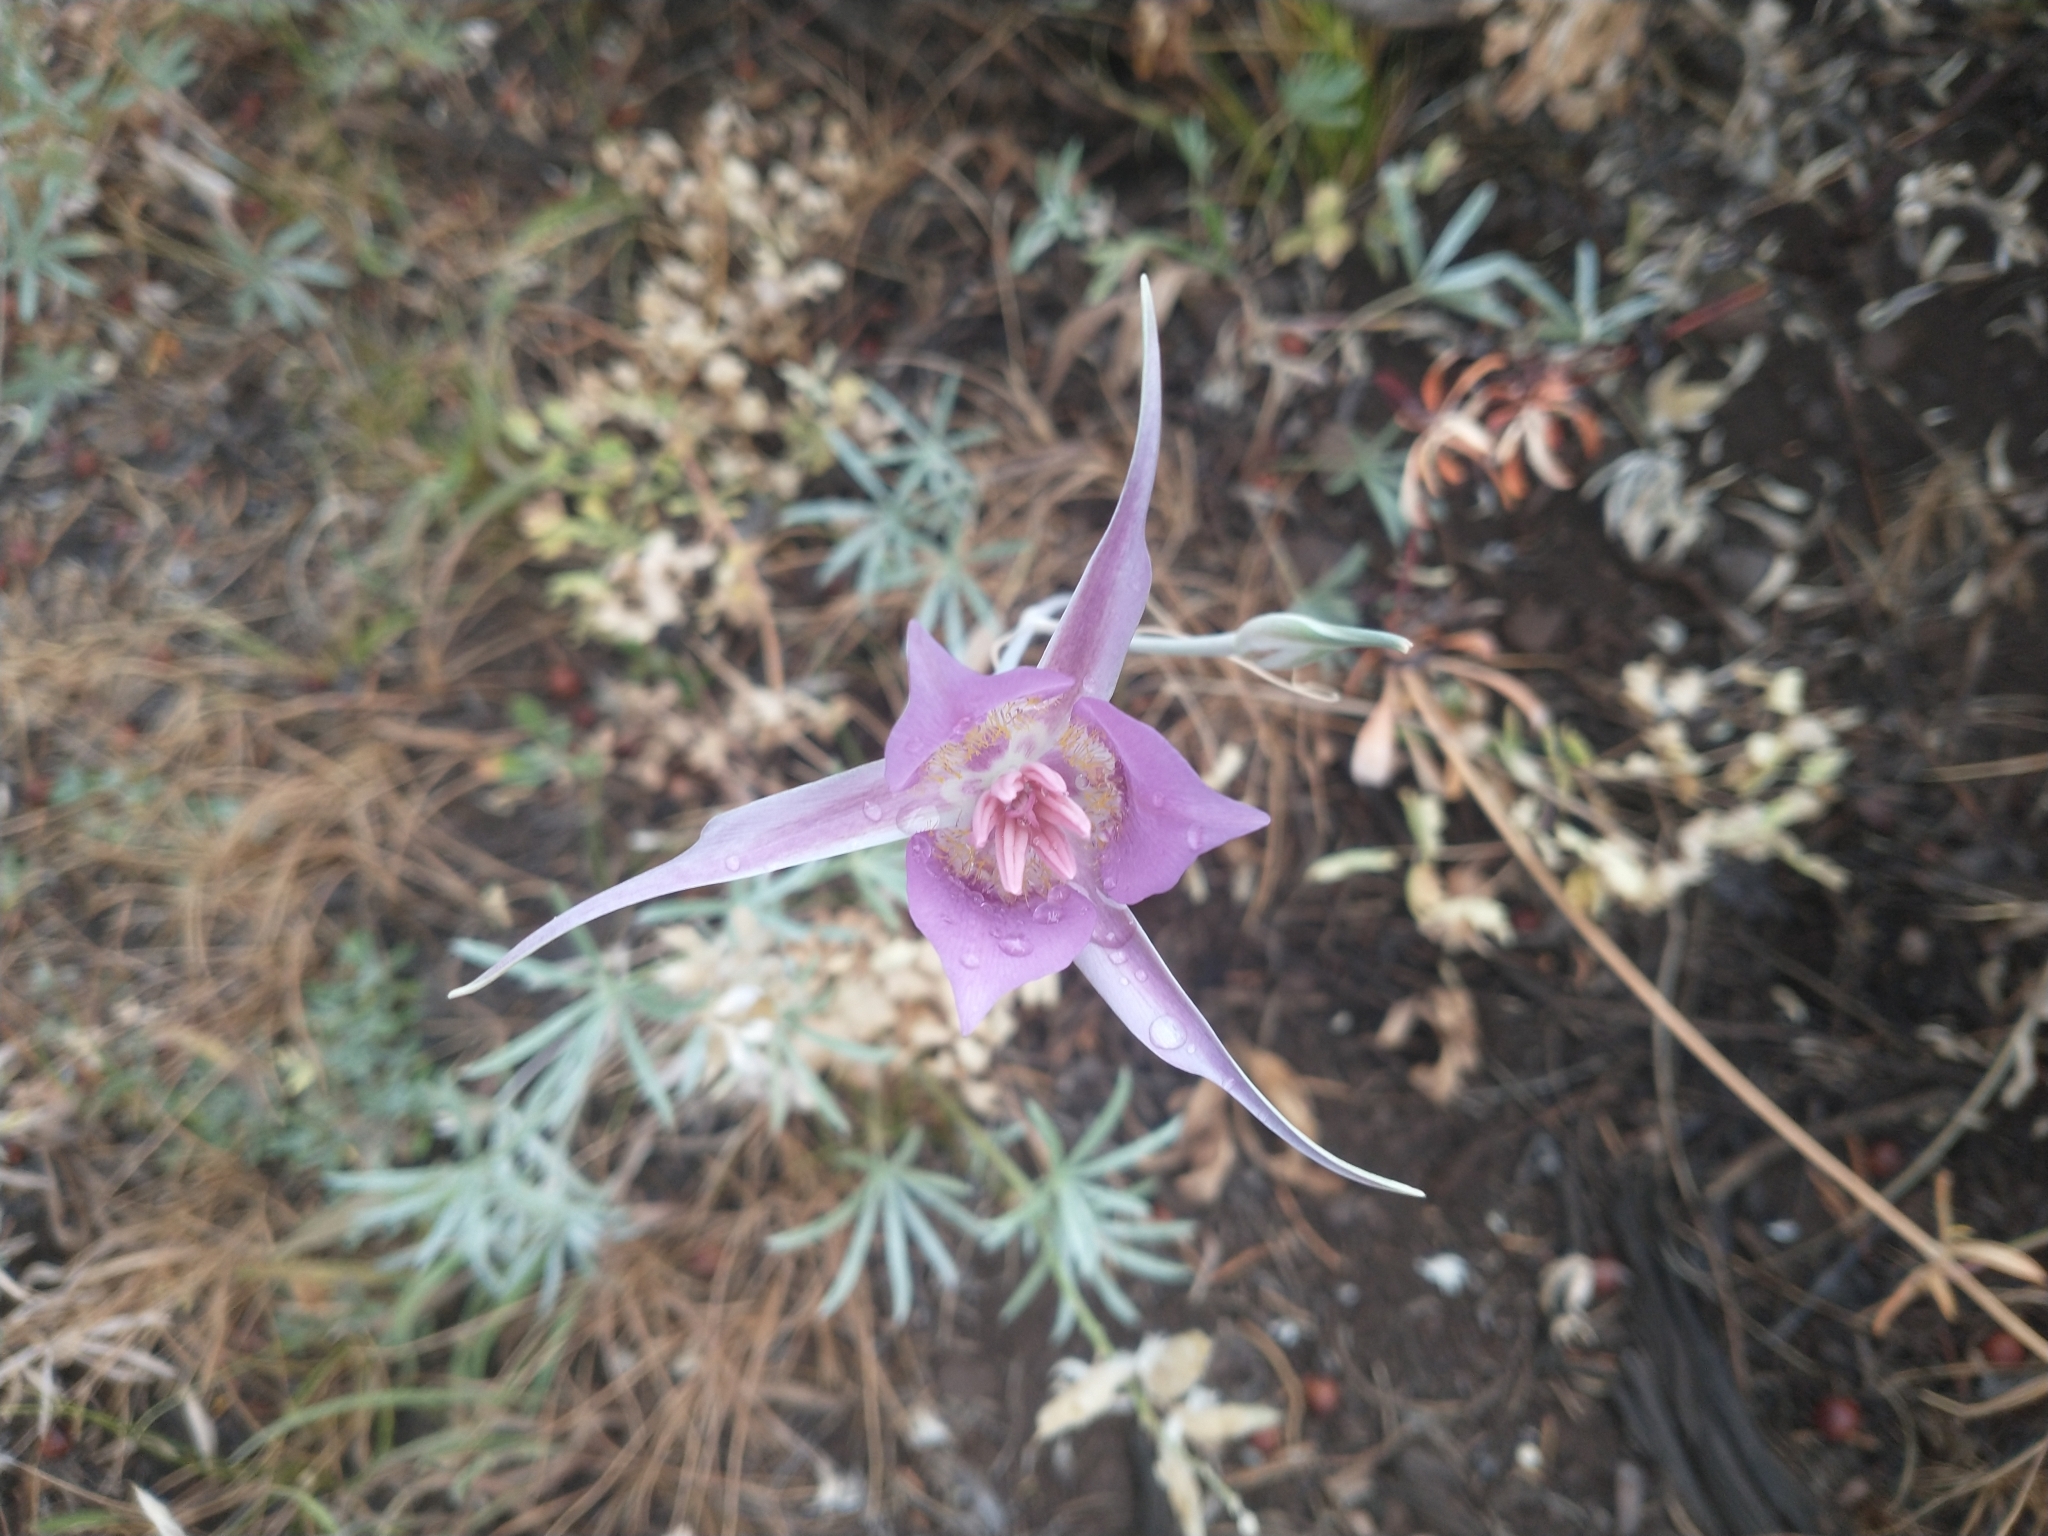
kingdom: Plantae
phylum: Tracheophyta
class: Liliopsida
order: Liliales
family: Liliaceae
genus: Calochortus
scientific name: Calochortus macrocarpus
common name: Green-band mariposa lily
